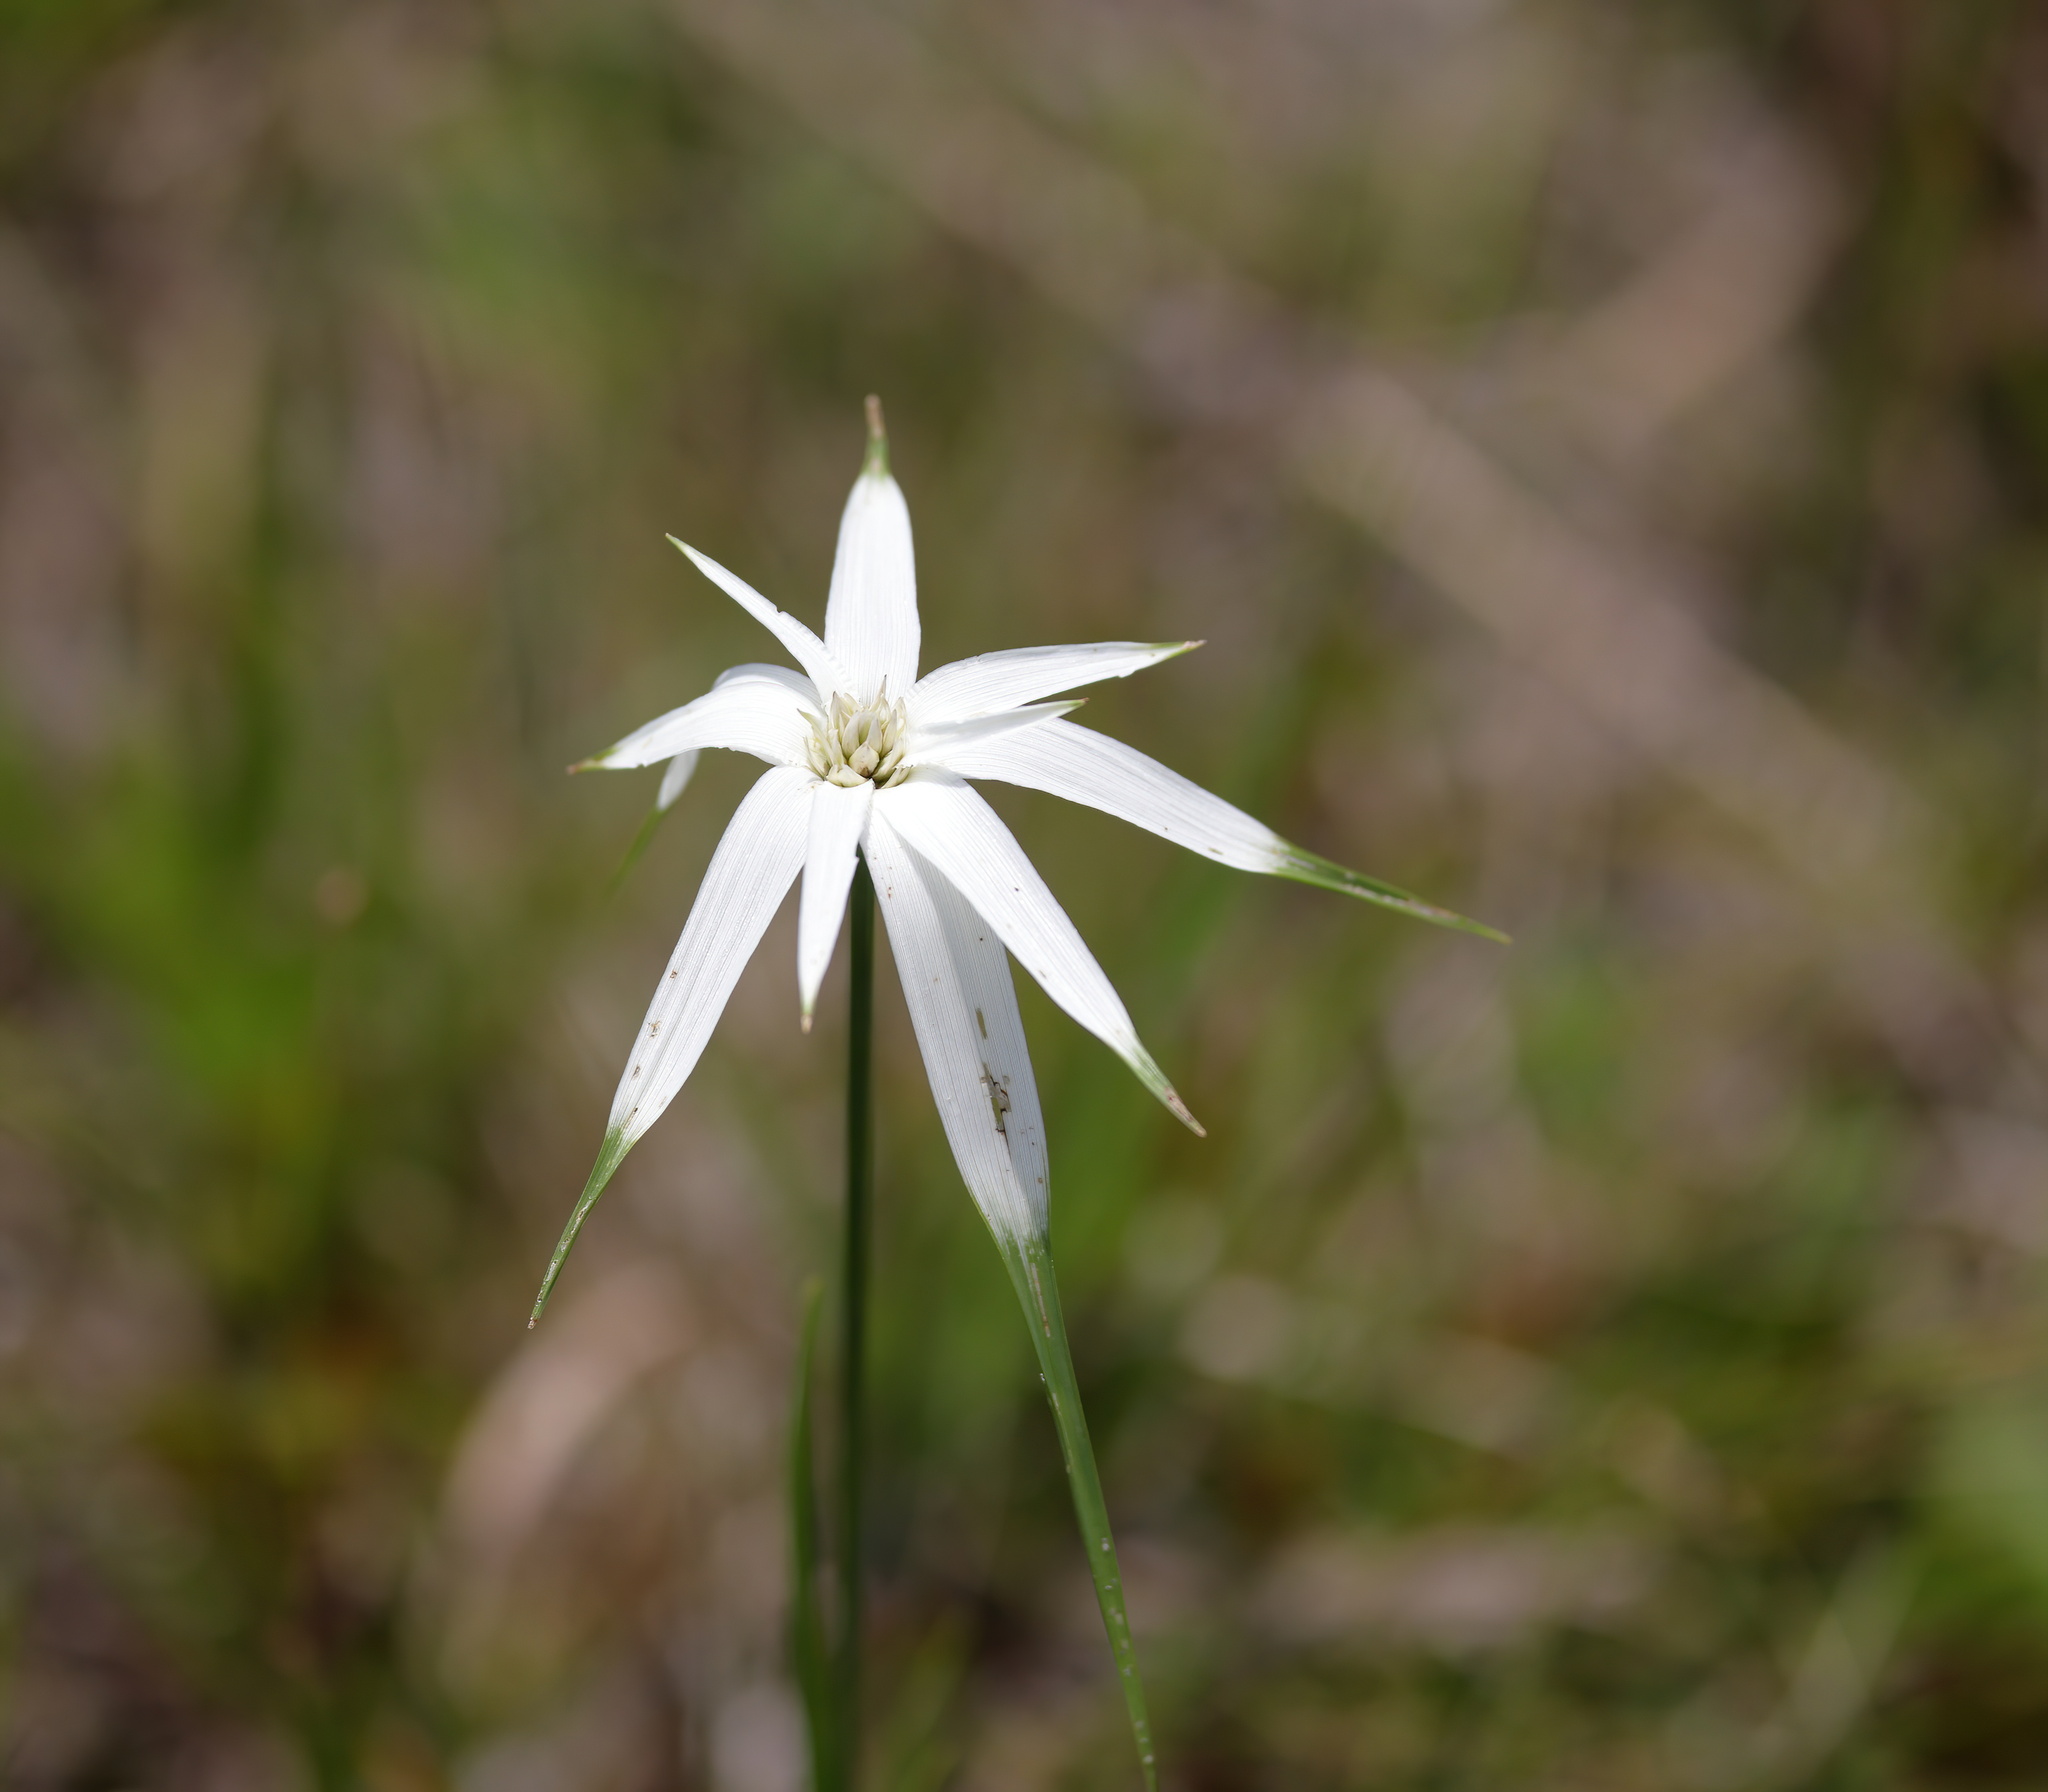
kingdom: Plantae
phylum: Tracheophyta
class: Liliopsida
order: Poales
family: Cyperaceae
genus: Rhynchospora
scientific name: Rhynchospora latifolia
